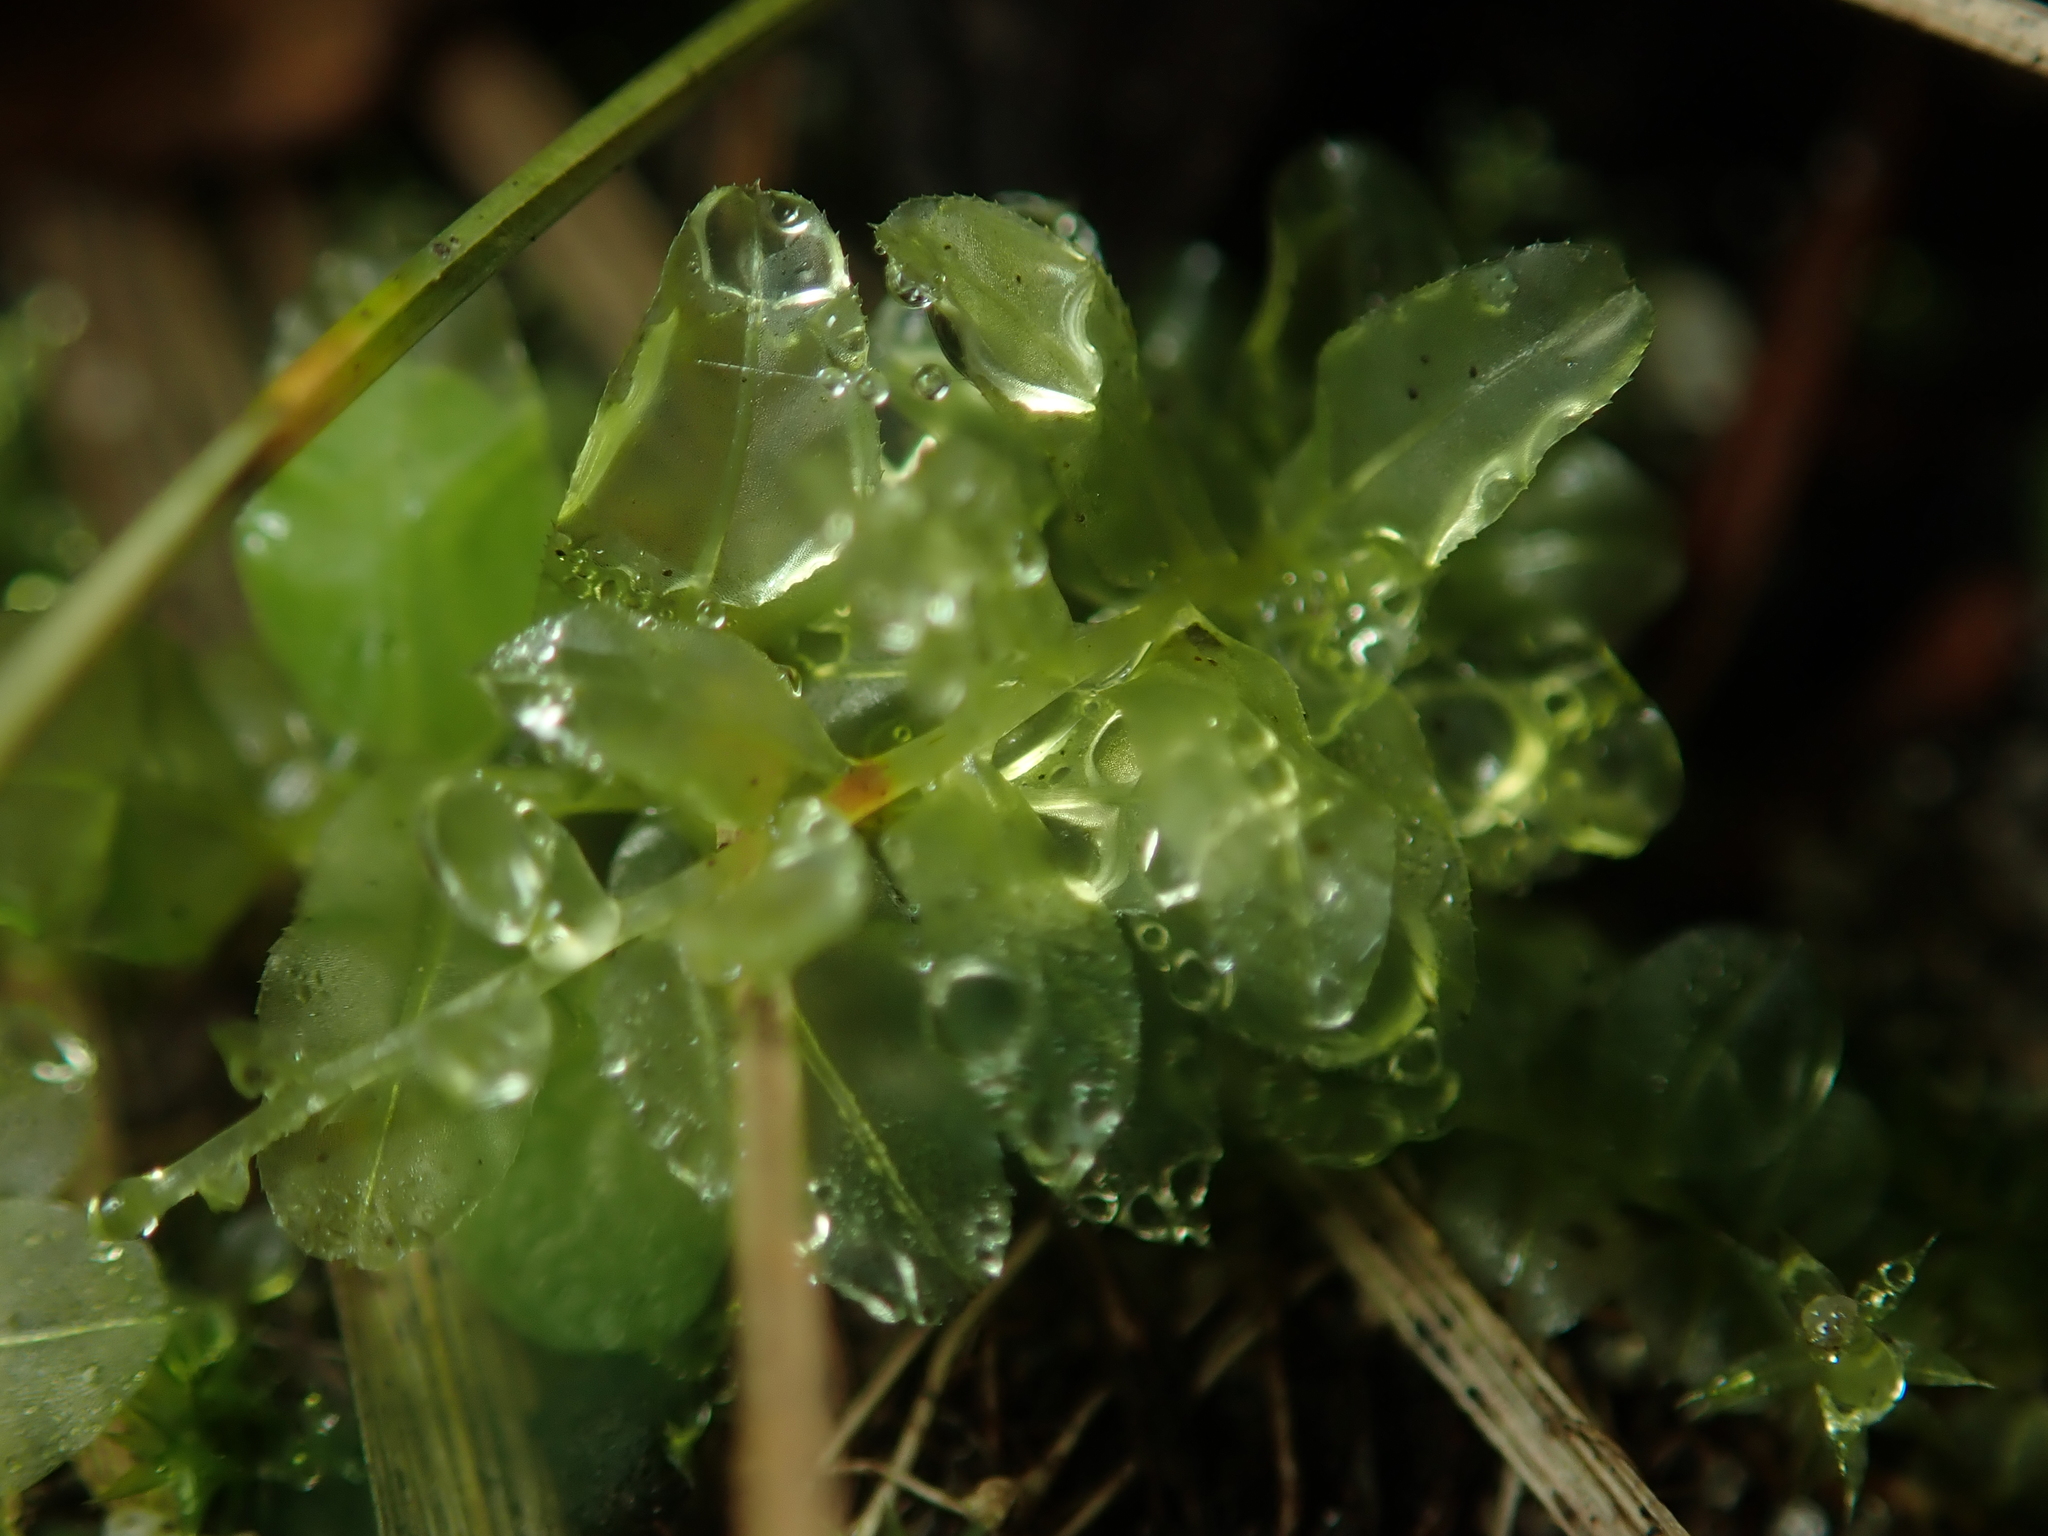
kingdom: Plantae
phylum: Bryophyta
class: Bryopsida
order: Bryales
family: Mniaceae
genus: Plagiomnium
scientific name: Plagiomnium undulatum
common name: Hart's-tongue thyme-moss
